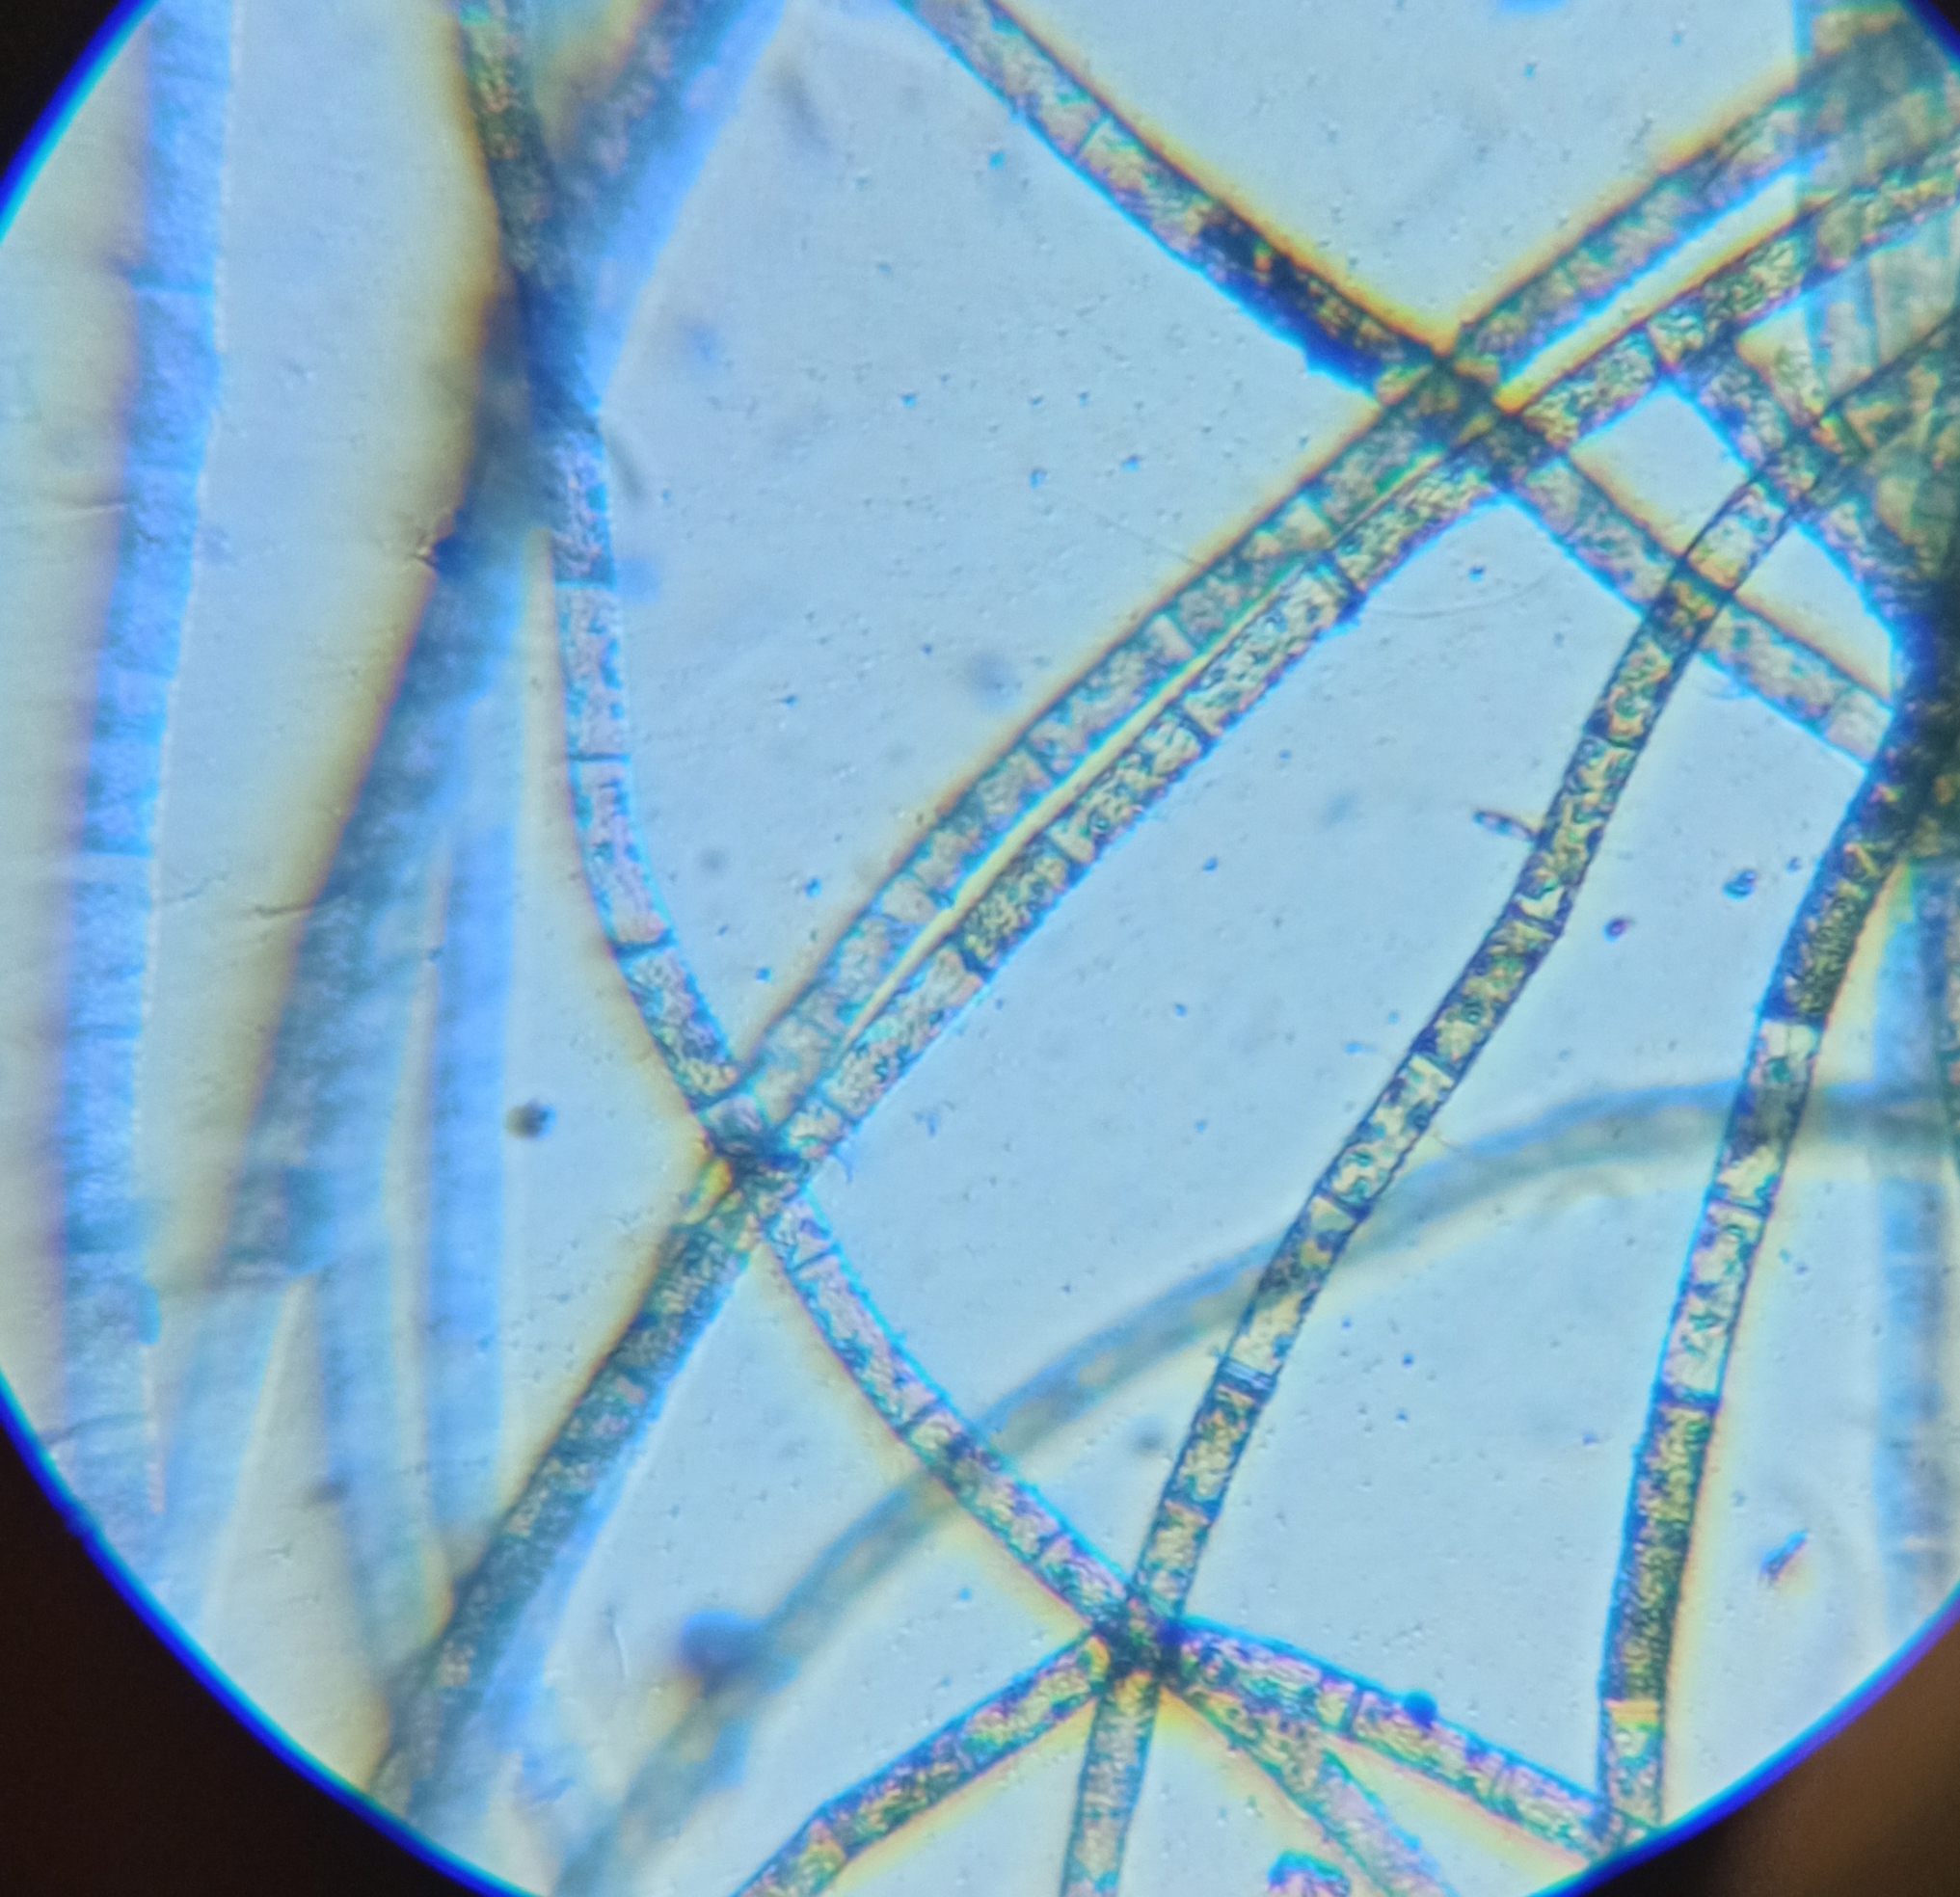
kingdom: Plantae
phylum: Chlorophyta
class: Chlorophyceae
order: Oedogoniales
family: Oedogoniaceae
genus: Oedogonium
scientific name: Oedogonium
